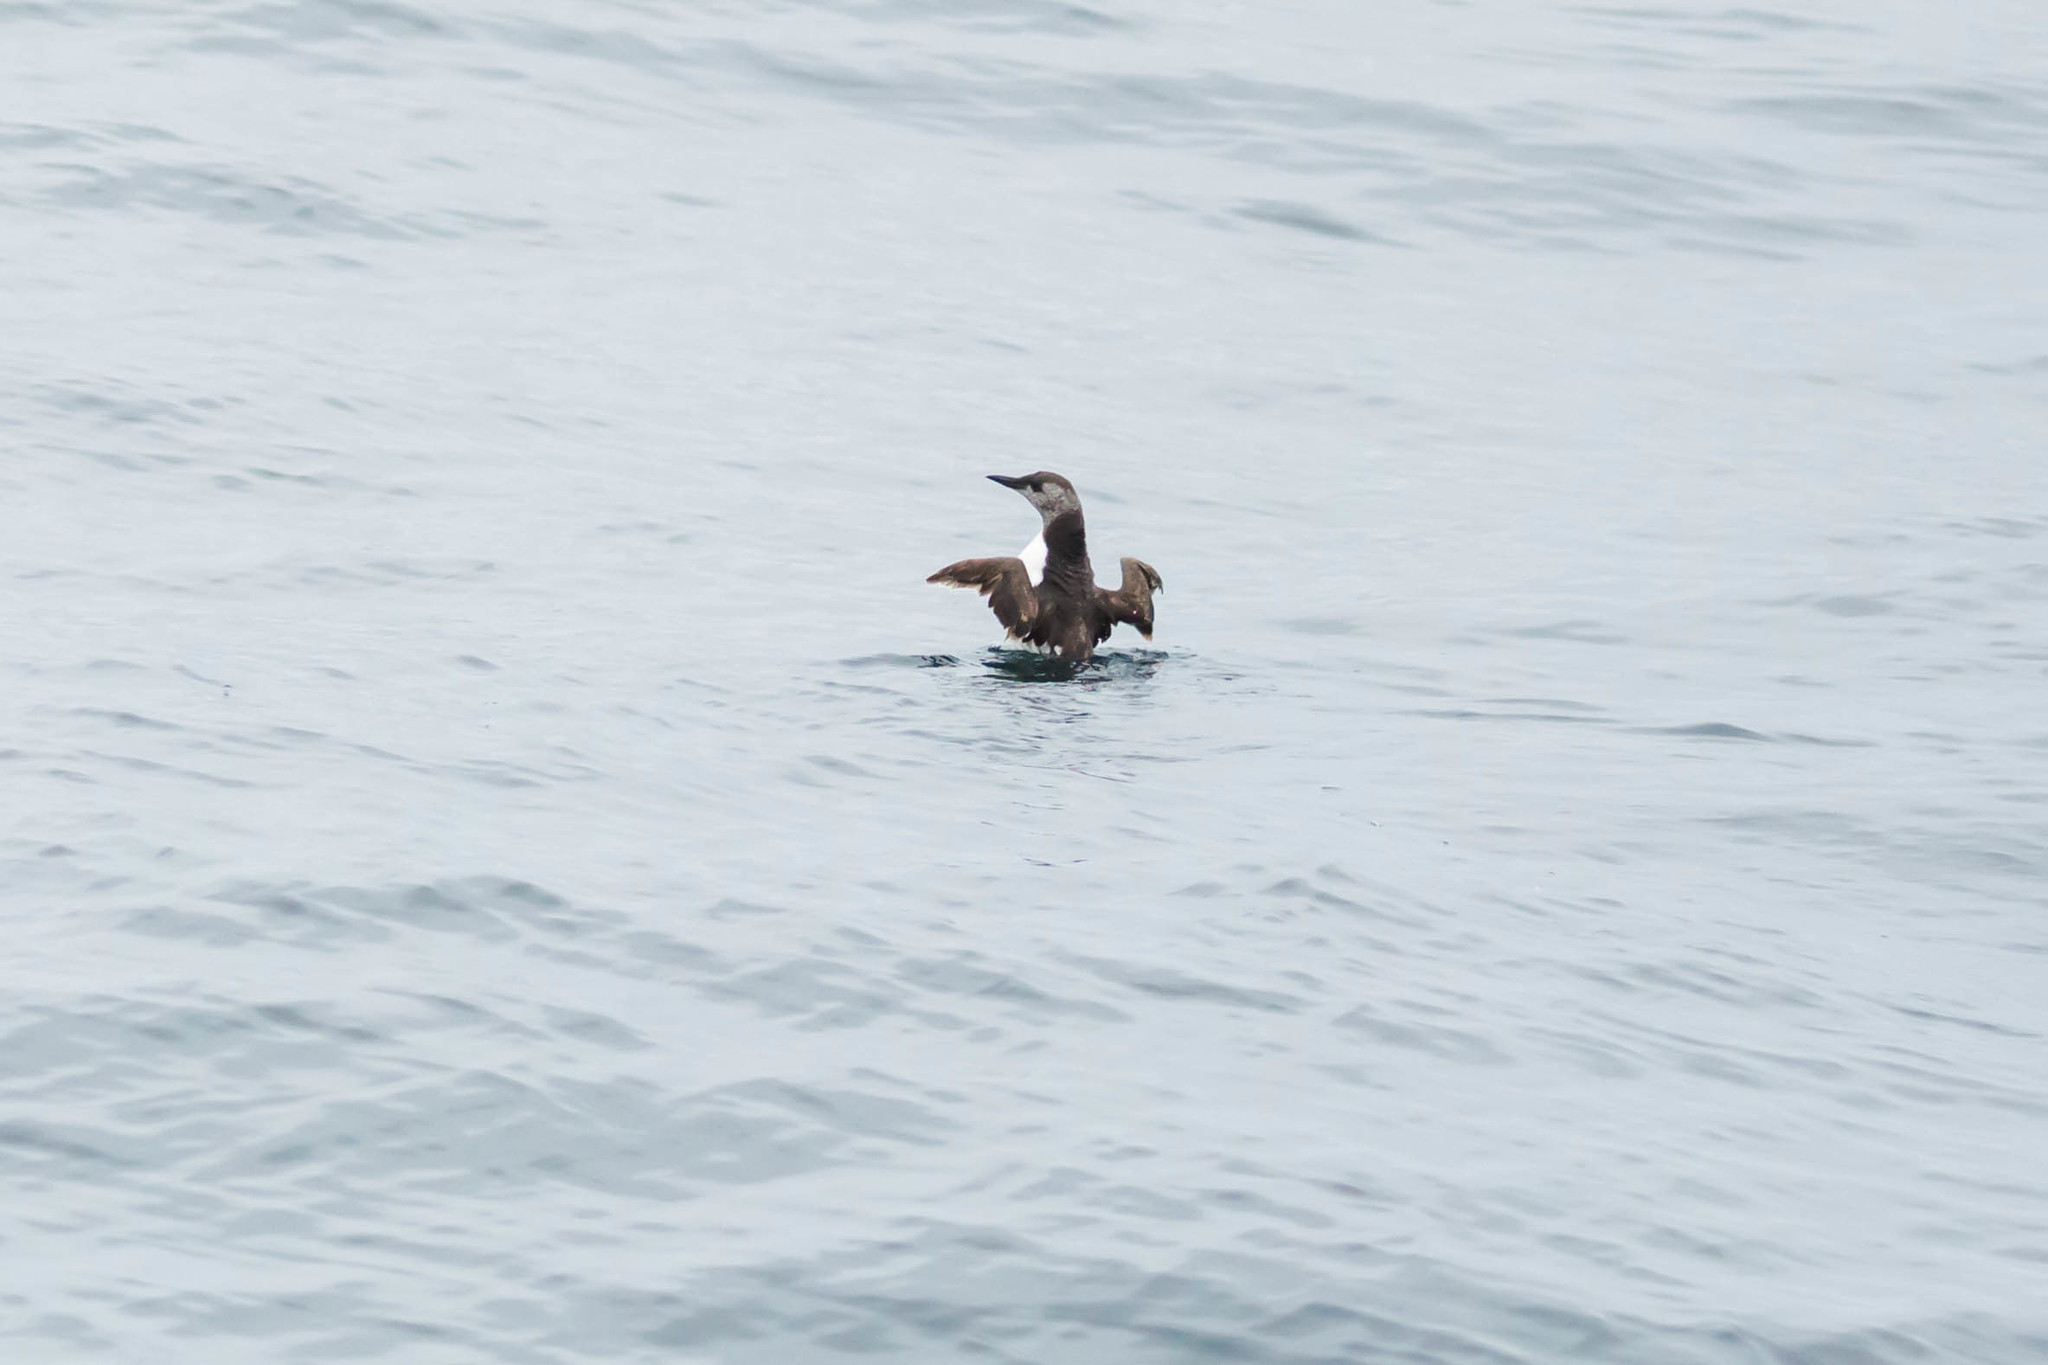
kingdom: Animalia
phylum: Chordata
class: Aves
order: Charadriiformes
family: Alcidae
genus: Uria
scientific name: Uria aalge
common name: Common murre
